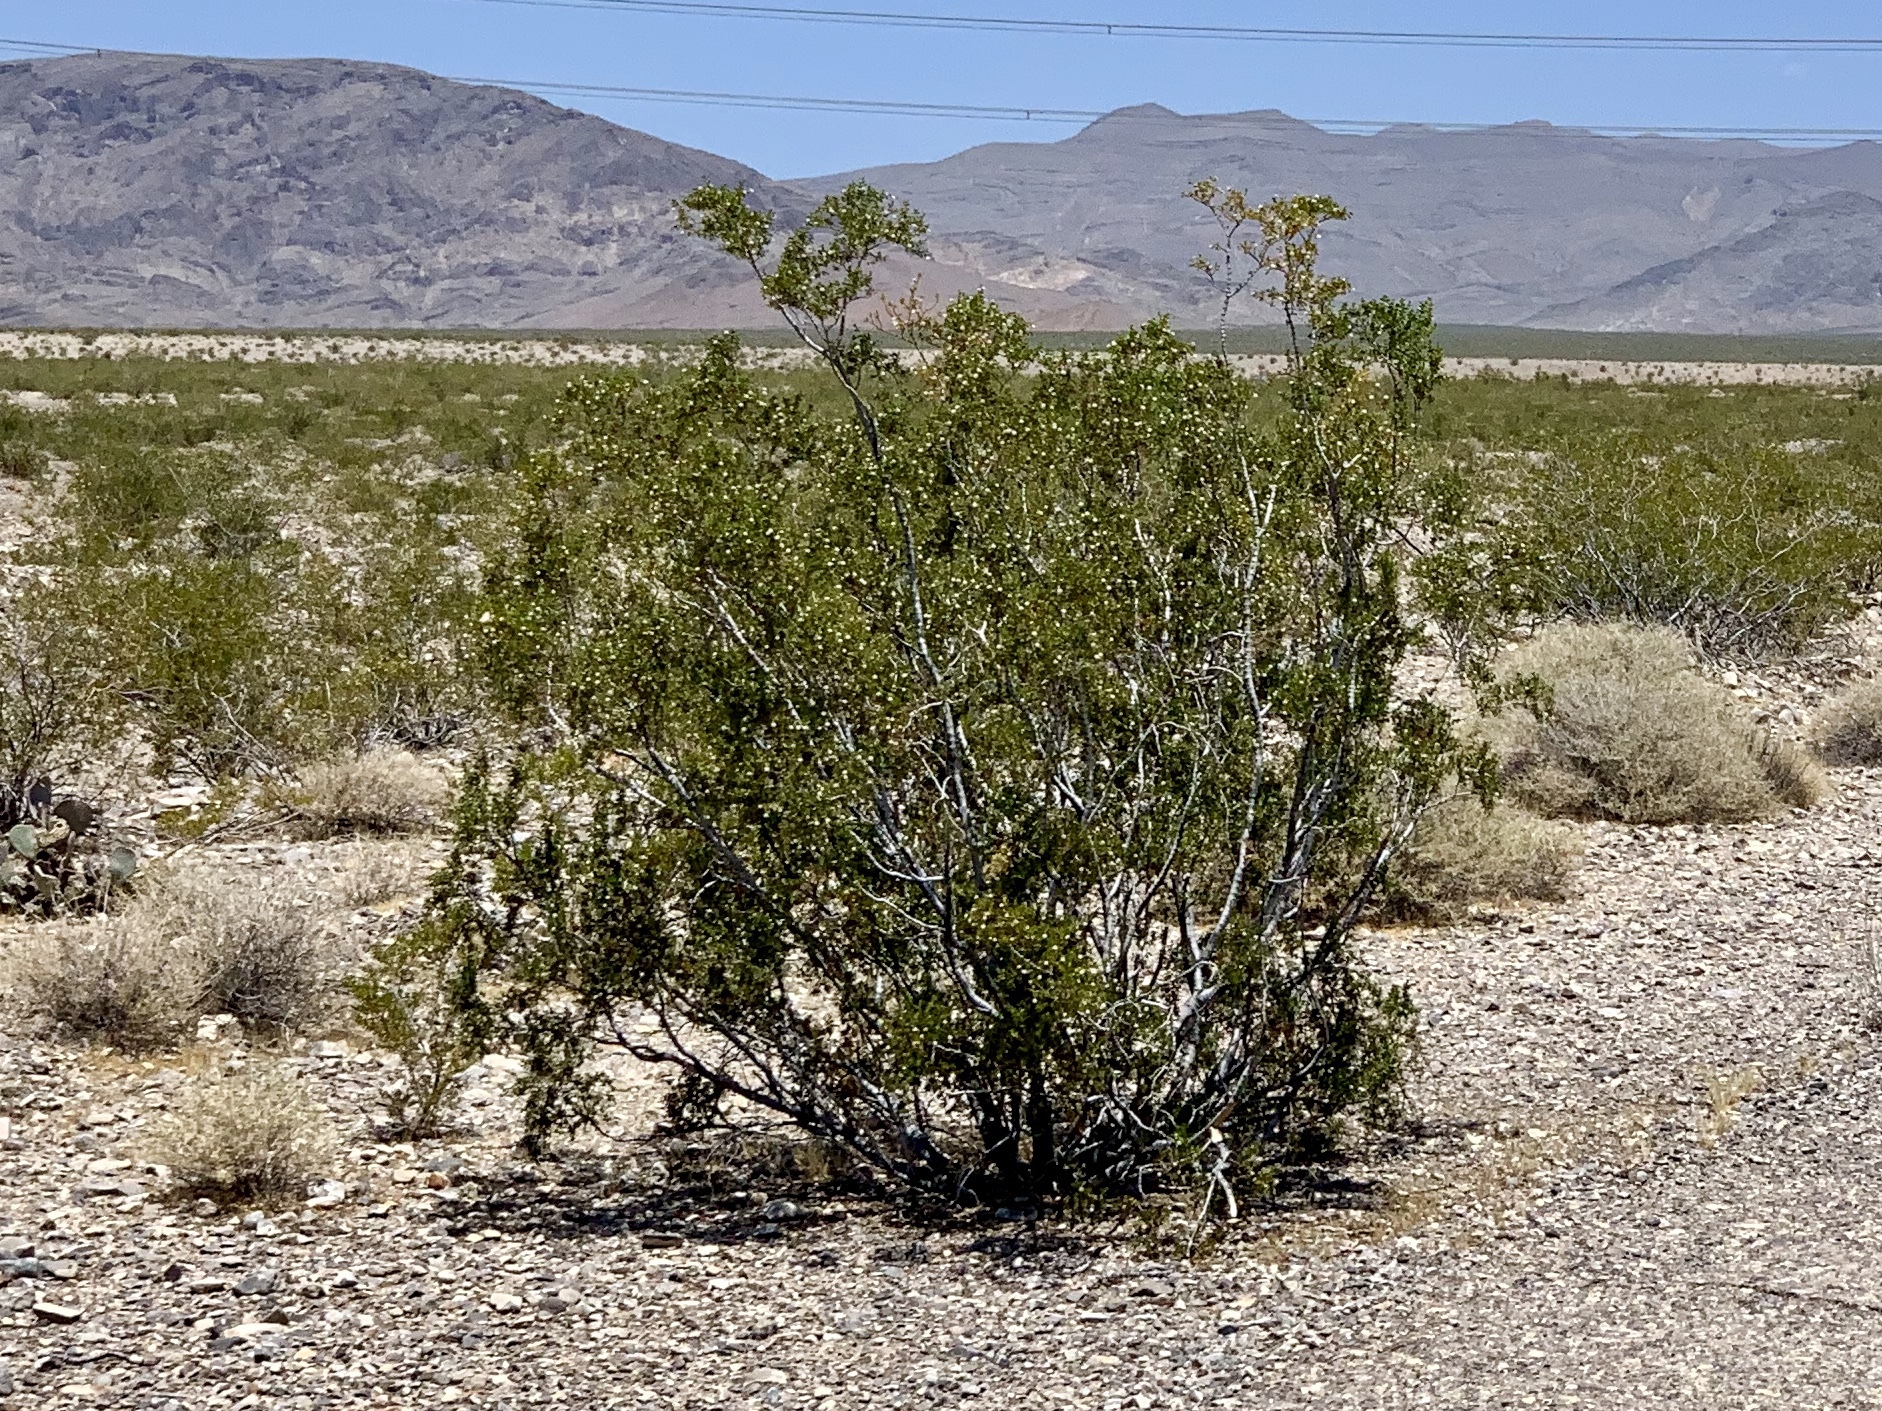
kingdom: Plantae
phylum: Tracheophyta
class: Magnoliopsida
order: Zygophyllales
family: Zygophyllaceae
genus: Larrea
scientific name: Larrea tridentata
